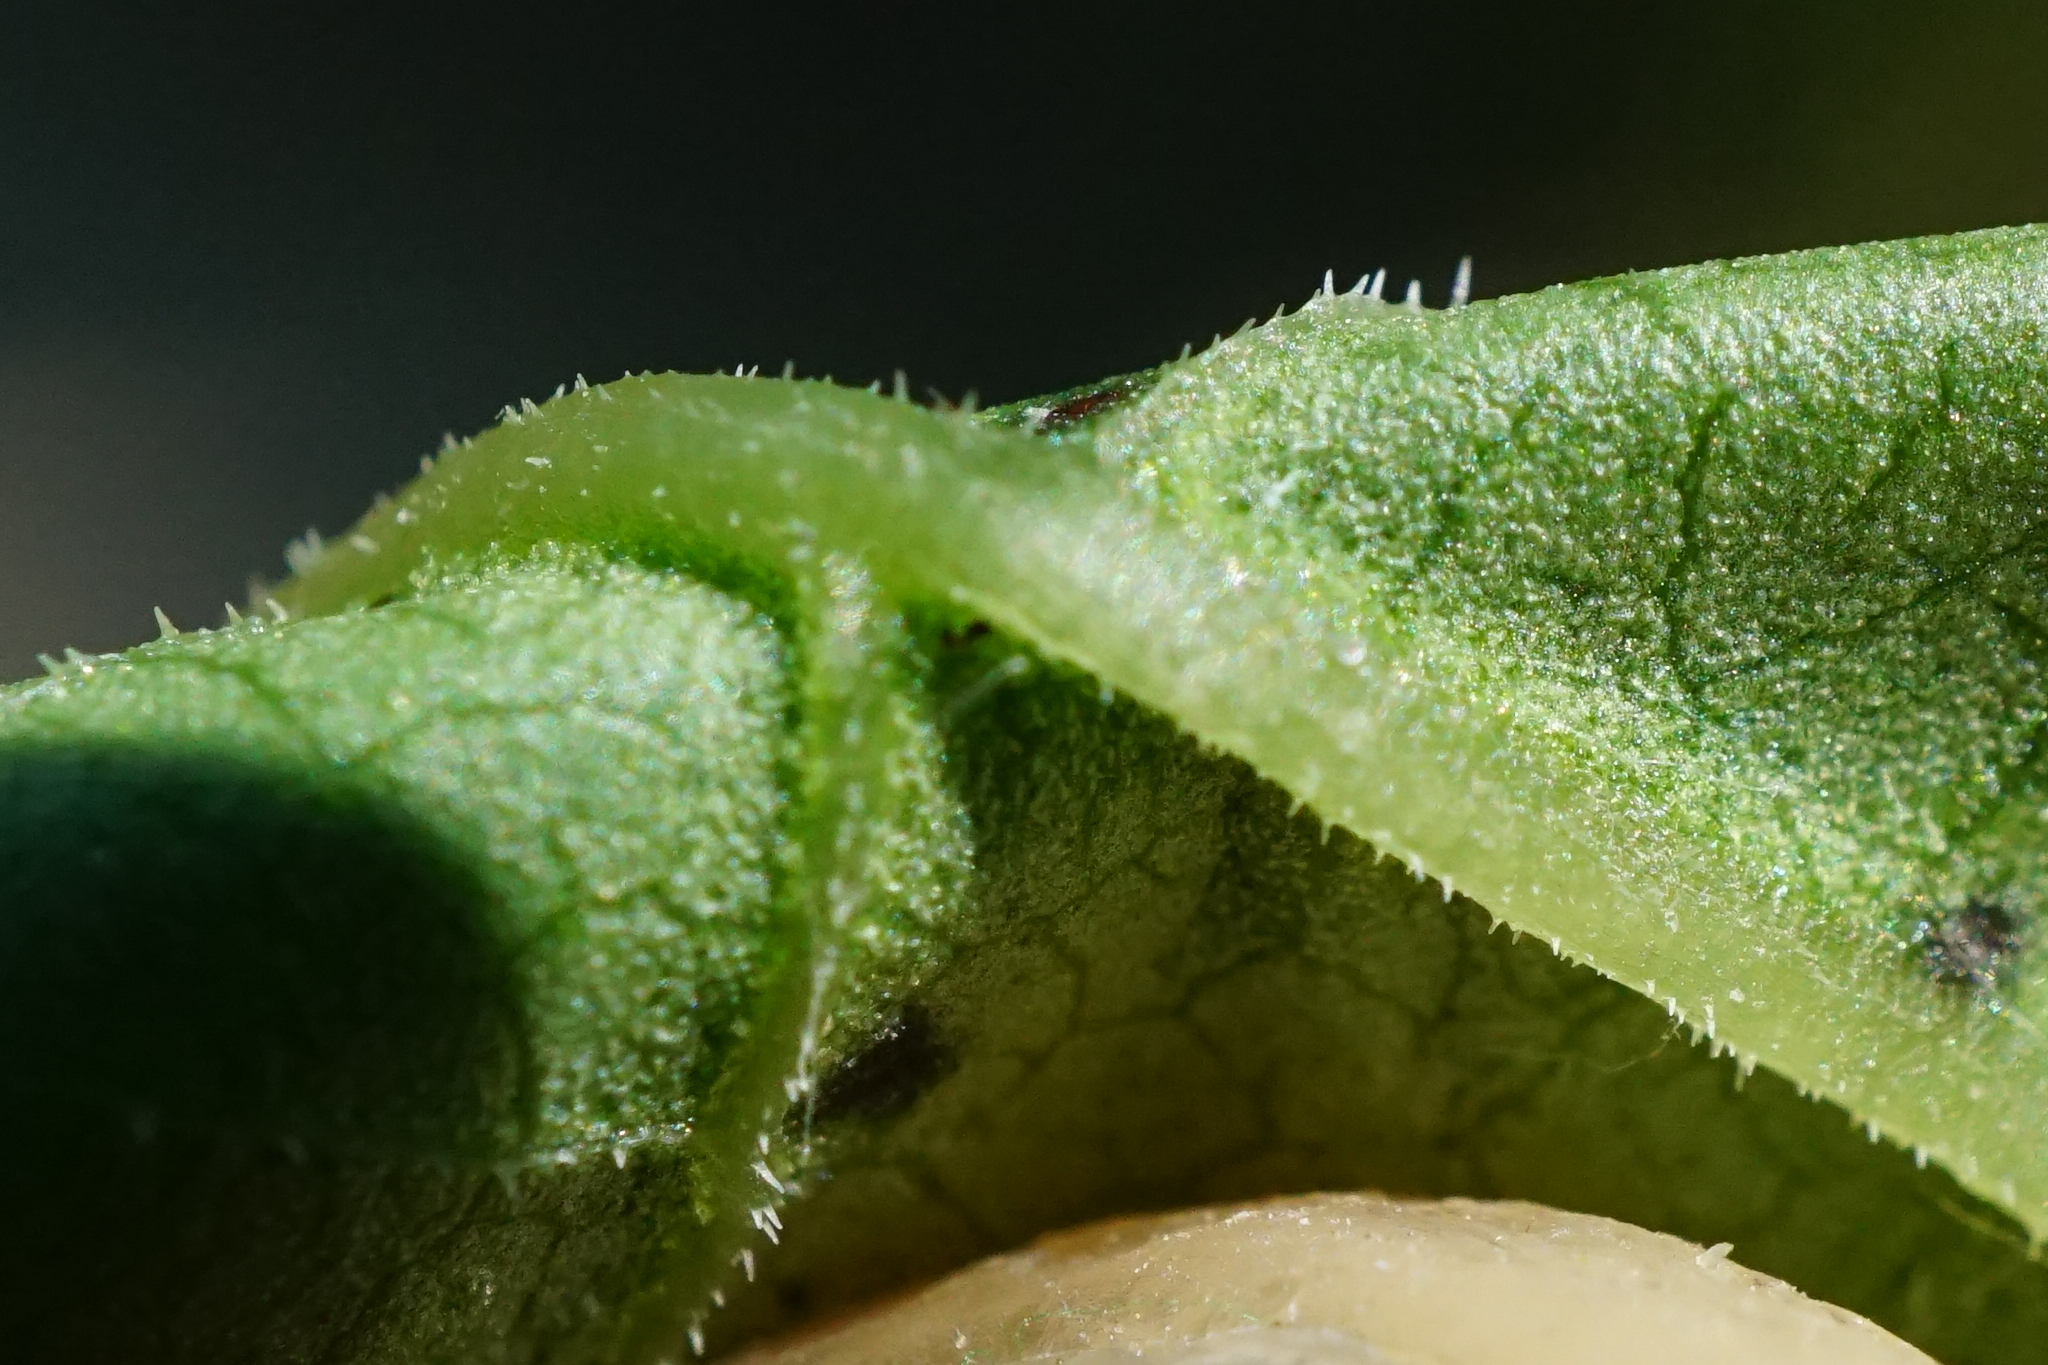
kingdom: Plantae
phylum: Tracheophyta
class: Magnoliopsida
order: Caryophyllales
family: Polygonaceae
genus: Reynoutria
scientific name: Reynoutria bohemica
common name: Bohemian knotweed
